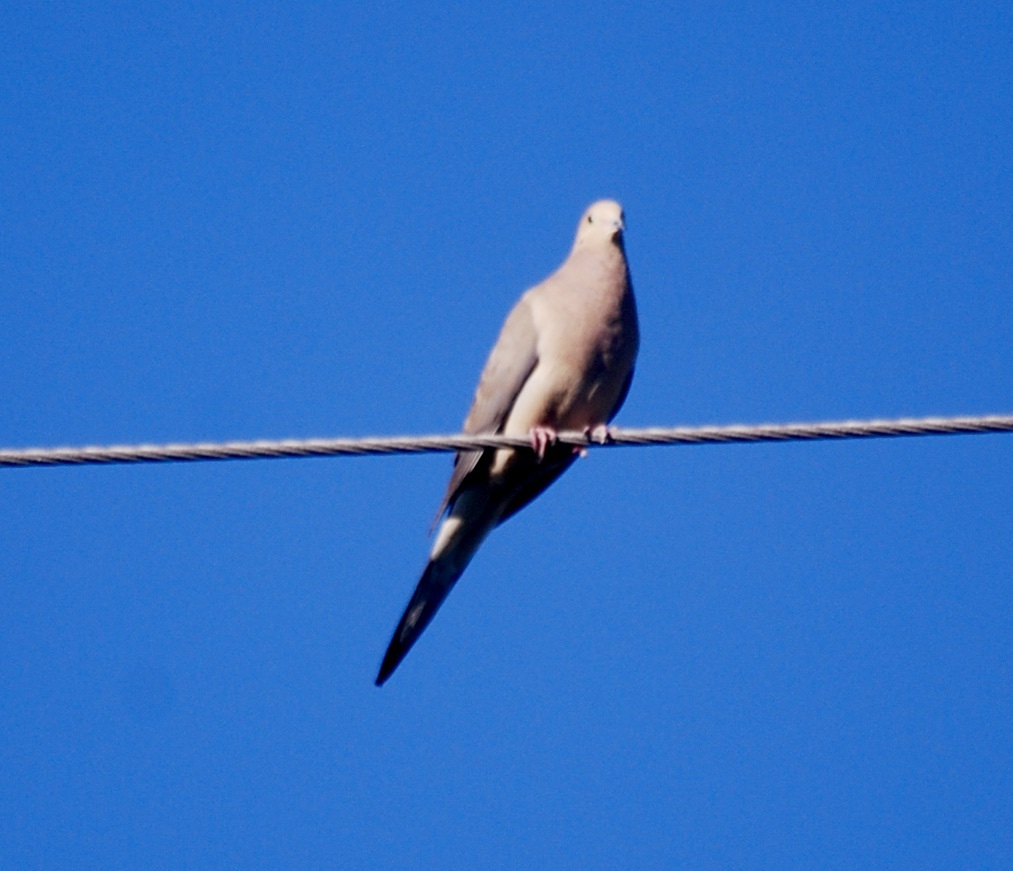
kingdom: Animalia
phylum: Chordata
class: Aves
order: Columbiformes
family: Columbidae
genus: Zenaida
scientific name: Zenaida macroura
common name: Mourning dove
